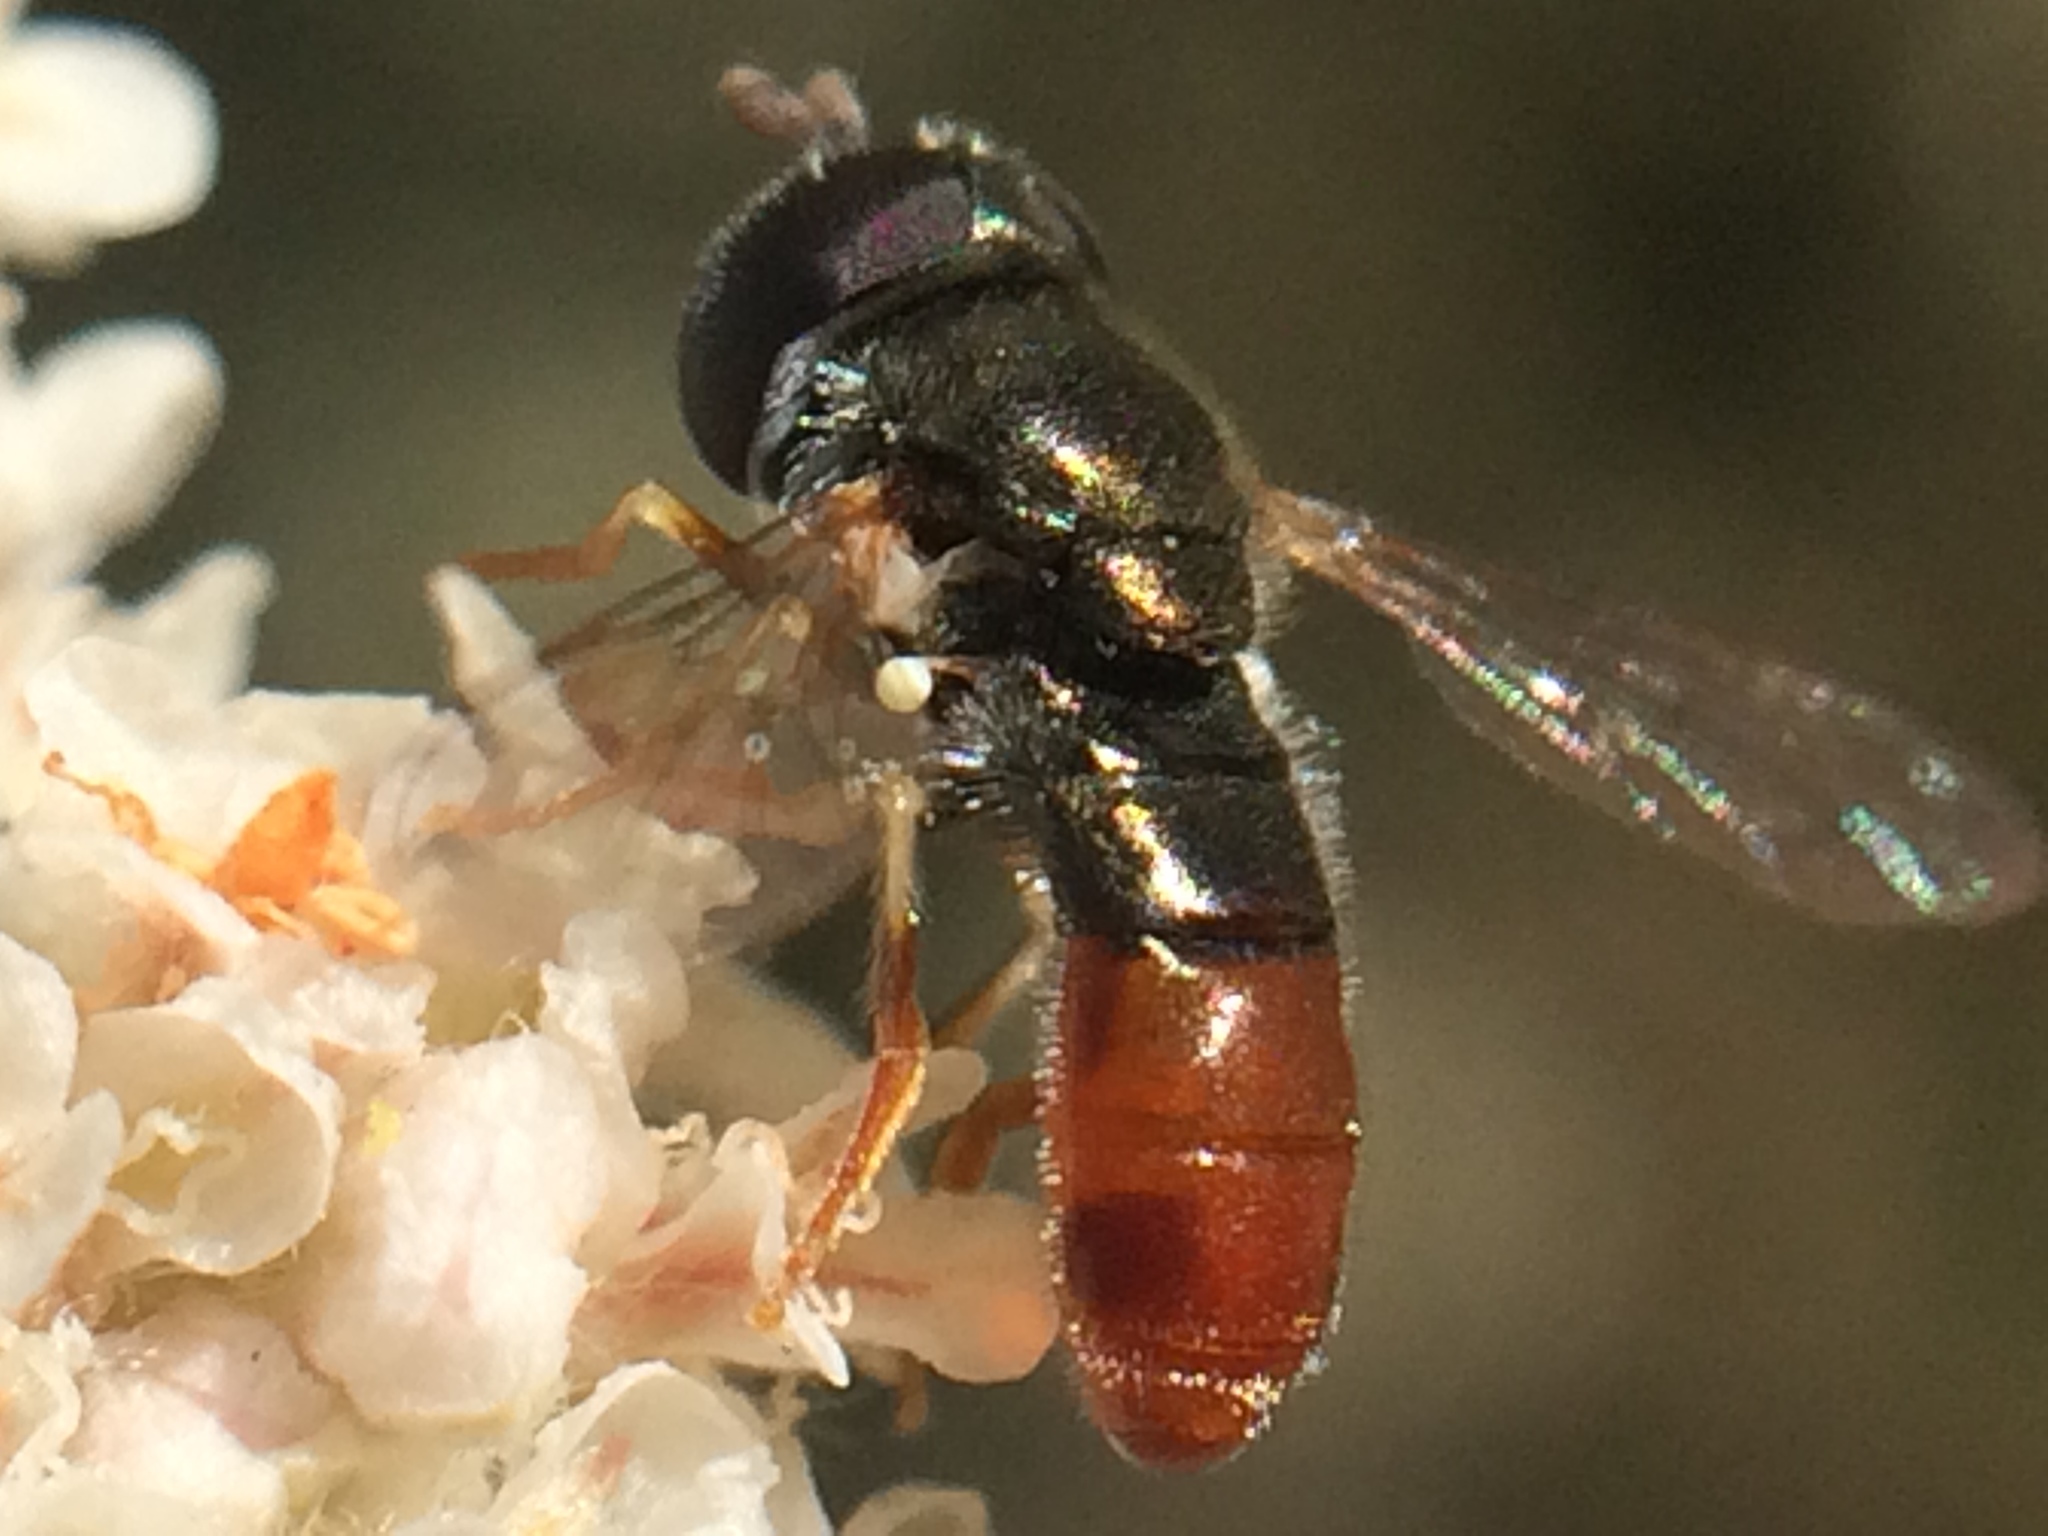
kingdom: Animalia
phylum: Arthropoda
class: Insecta
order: Diptera
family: Syrphidae
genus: Paragus
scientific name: Paragus haemorrhous
